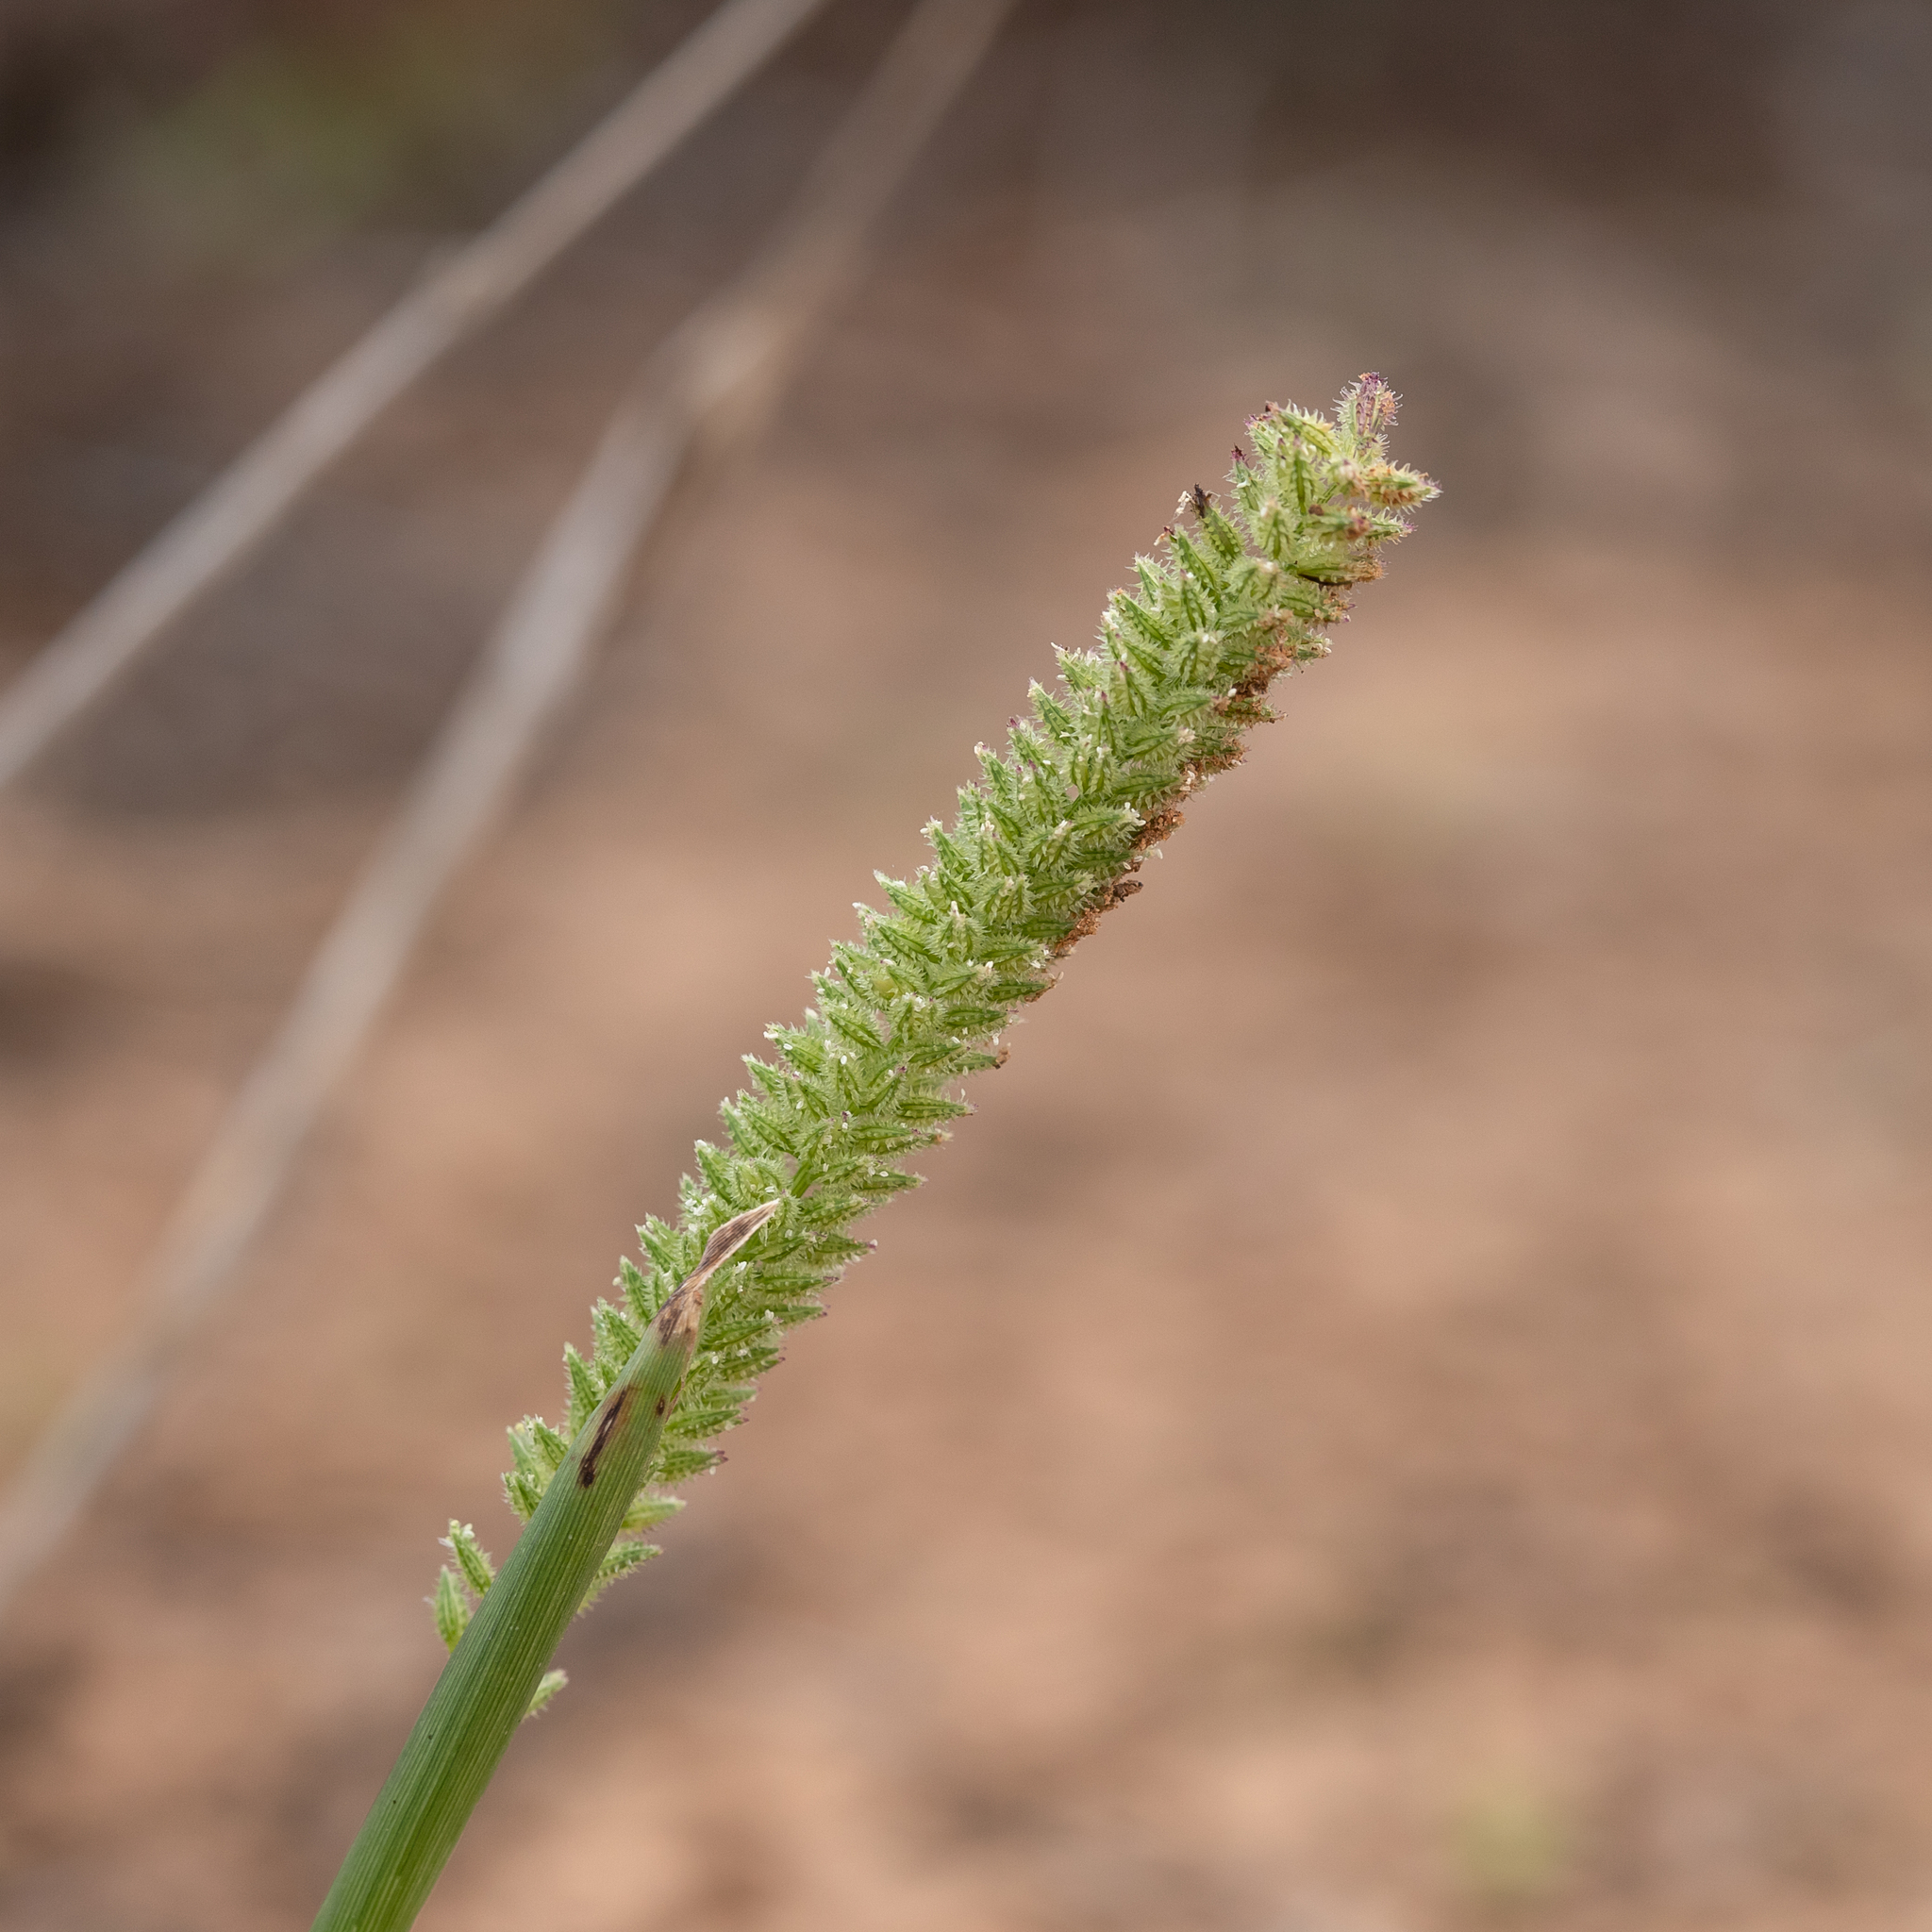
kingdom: Plantae
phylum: Tracheophyta
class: Liliopsida
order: Poales
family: Poaceae
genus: Tragus
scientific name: Tragus australianus
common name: Australian bur-grass
